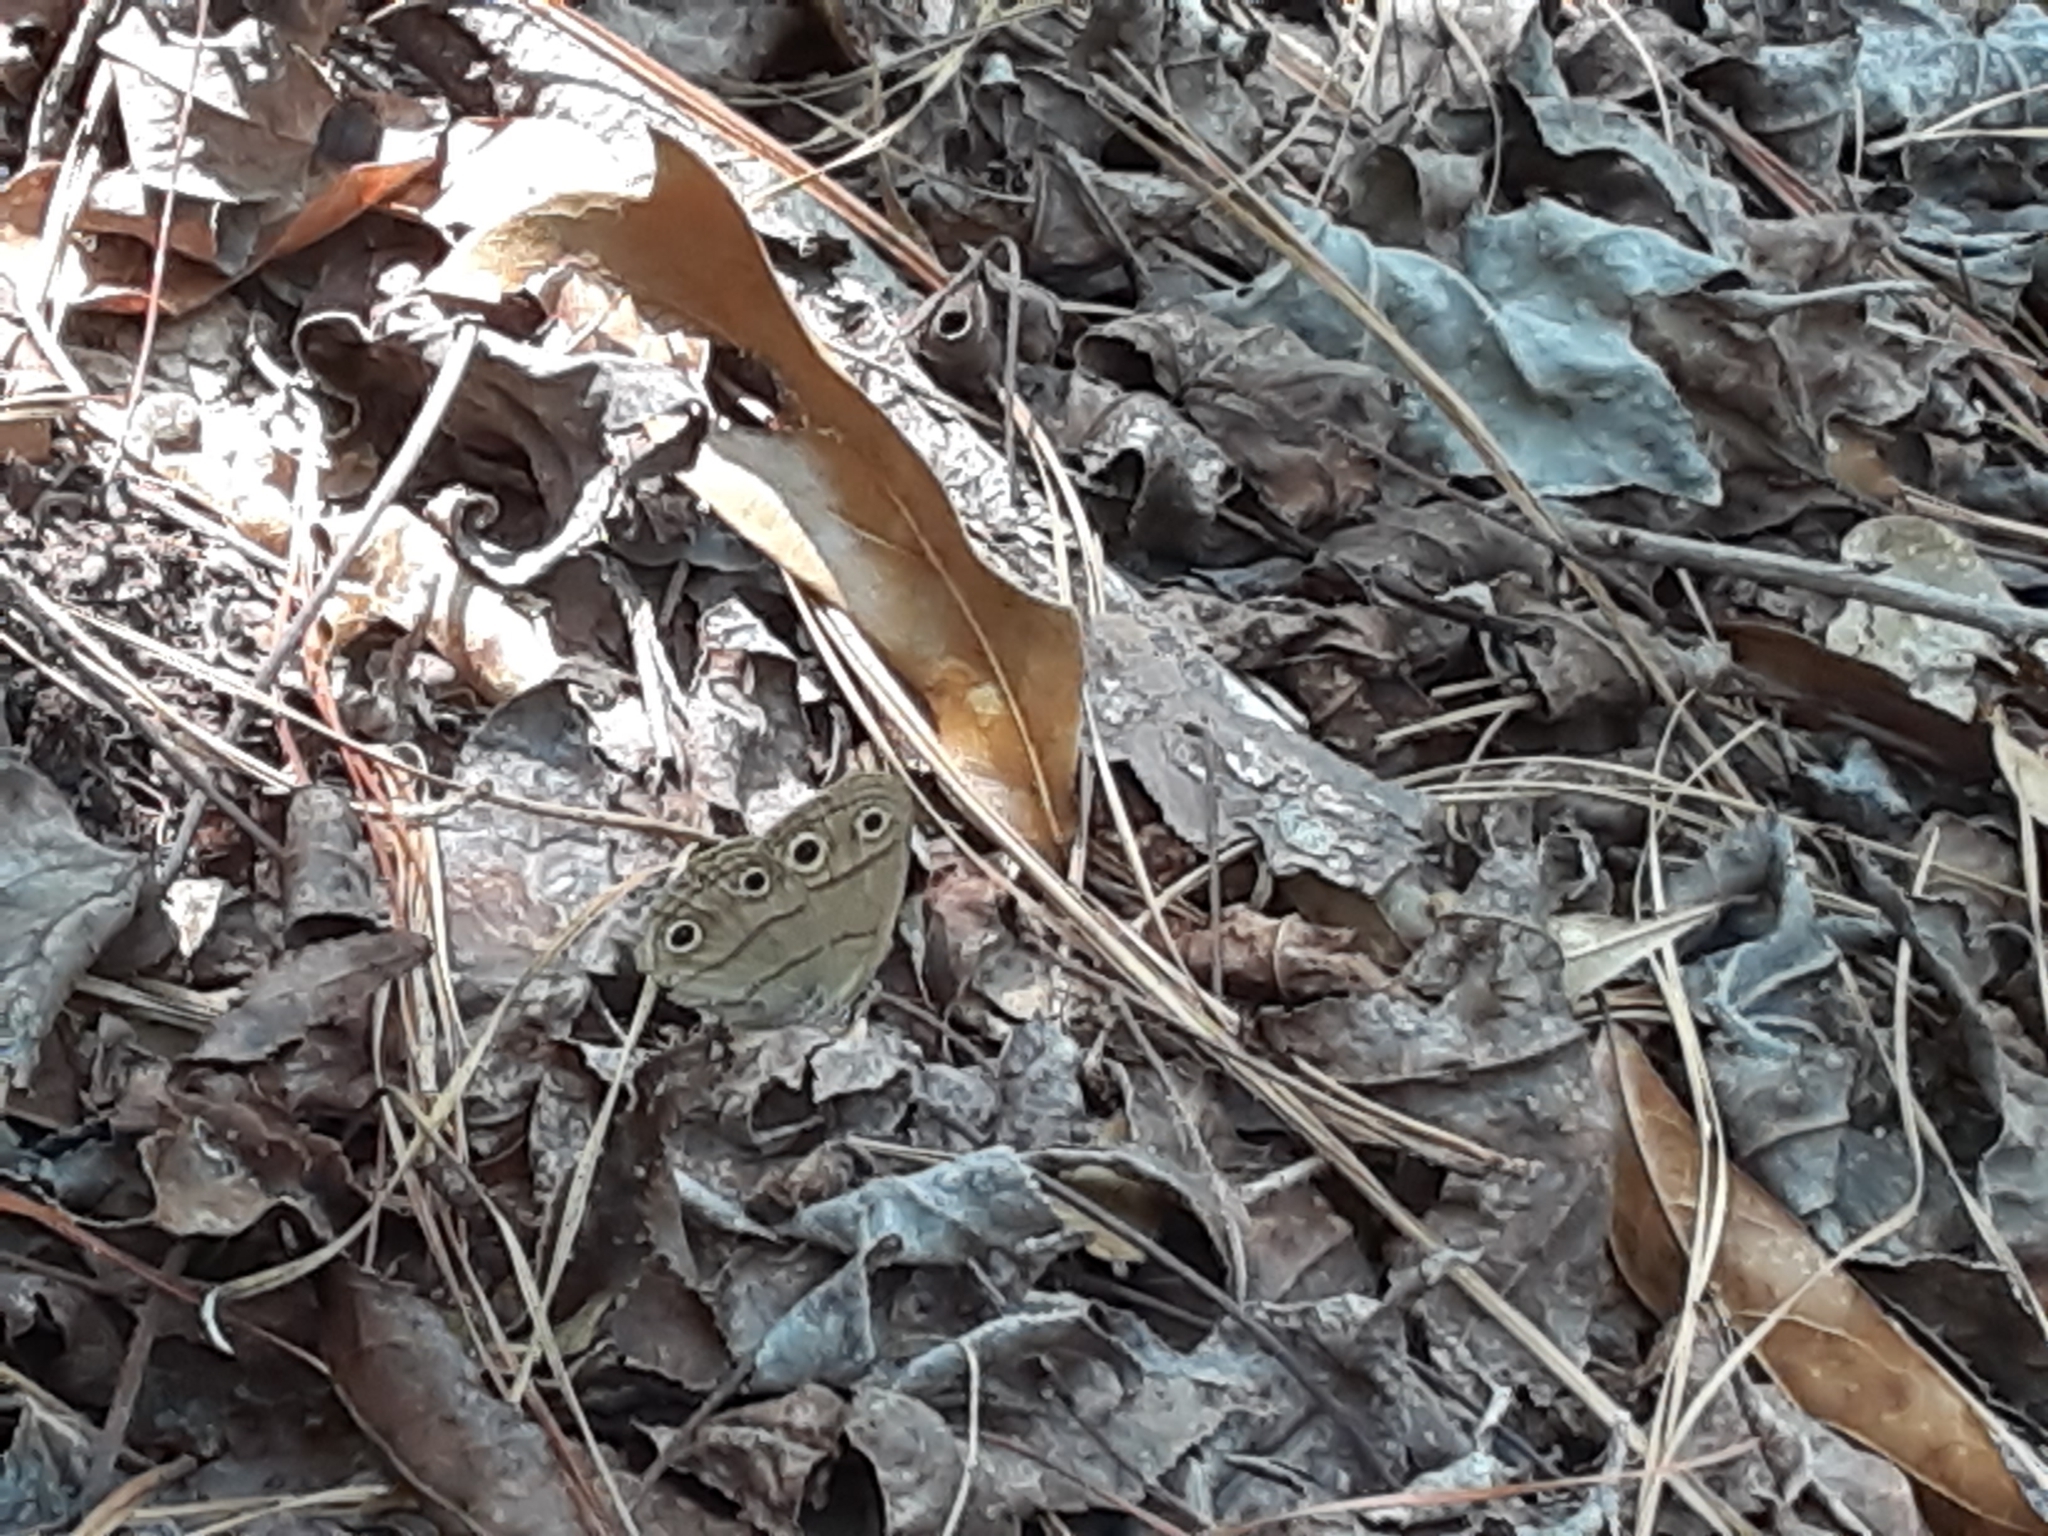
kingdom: Animalia
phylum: Arthropoda
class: Insecta
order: Lepidoptera
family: Nymphalidae
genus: Euptychia
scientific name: Euptychia cymela
